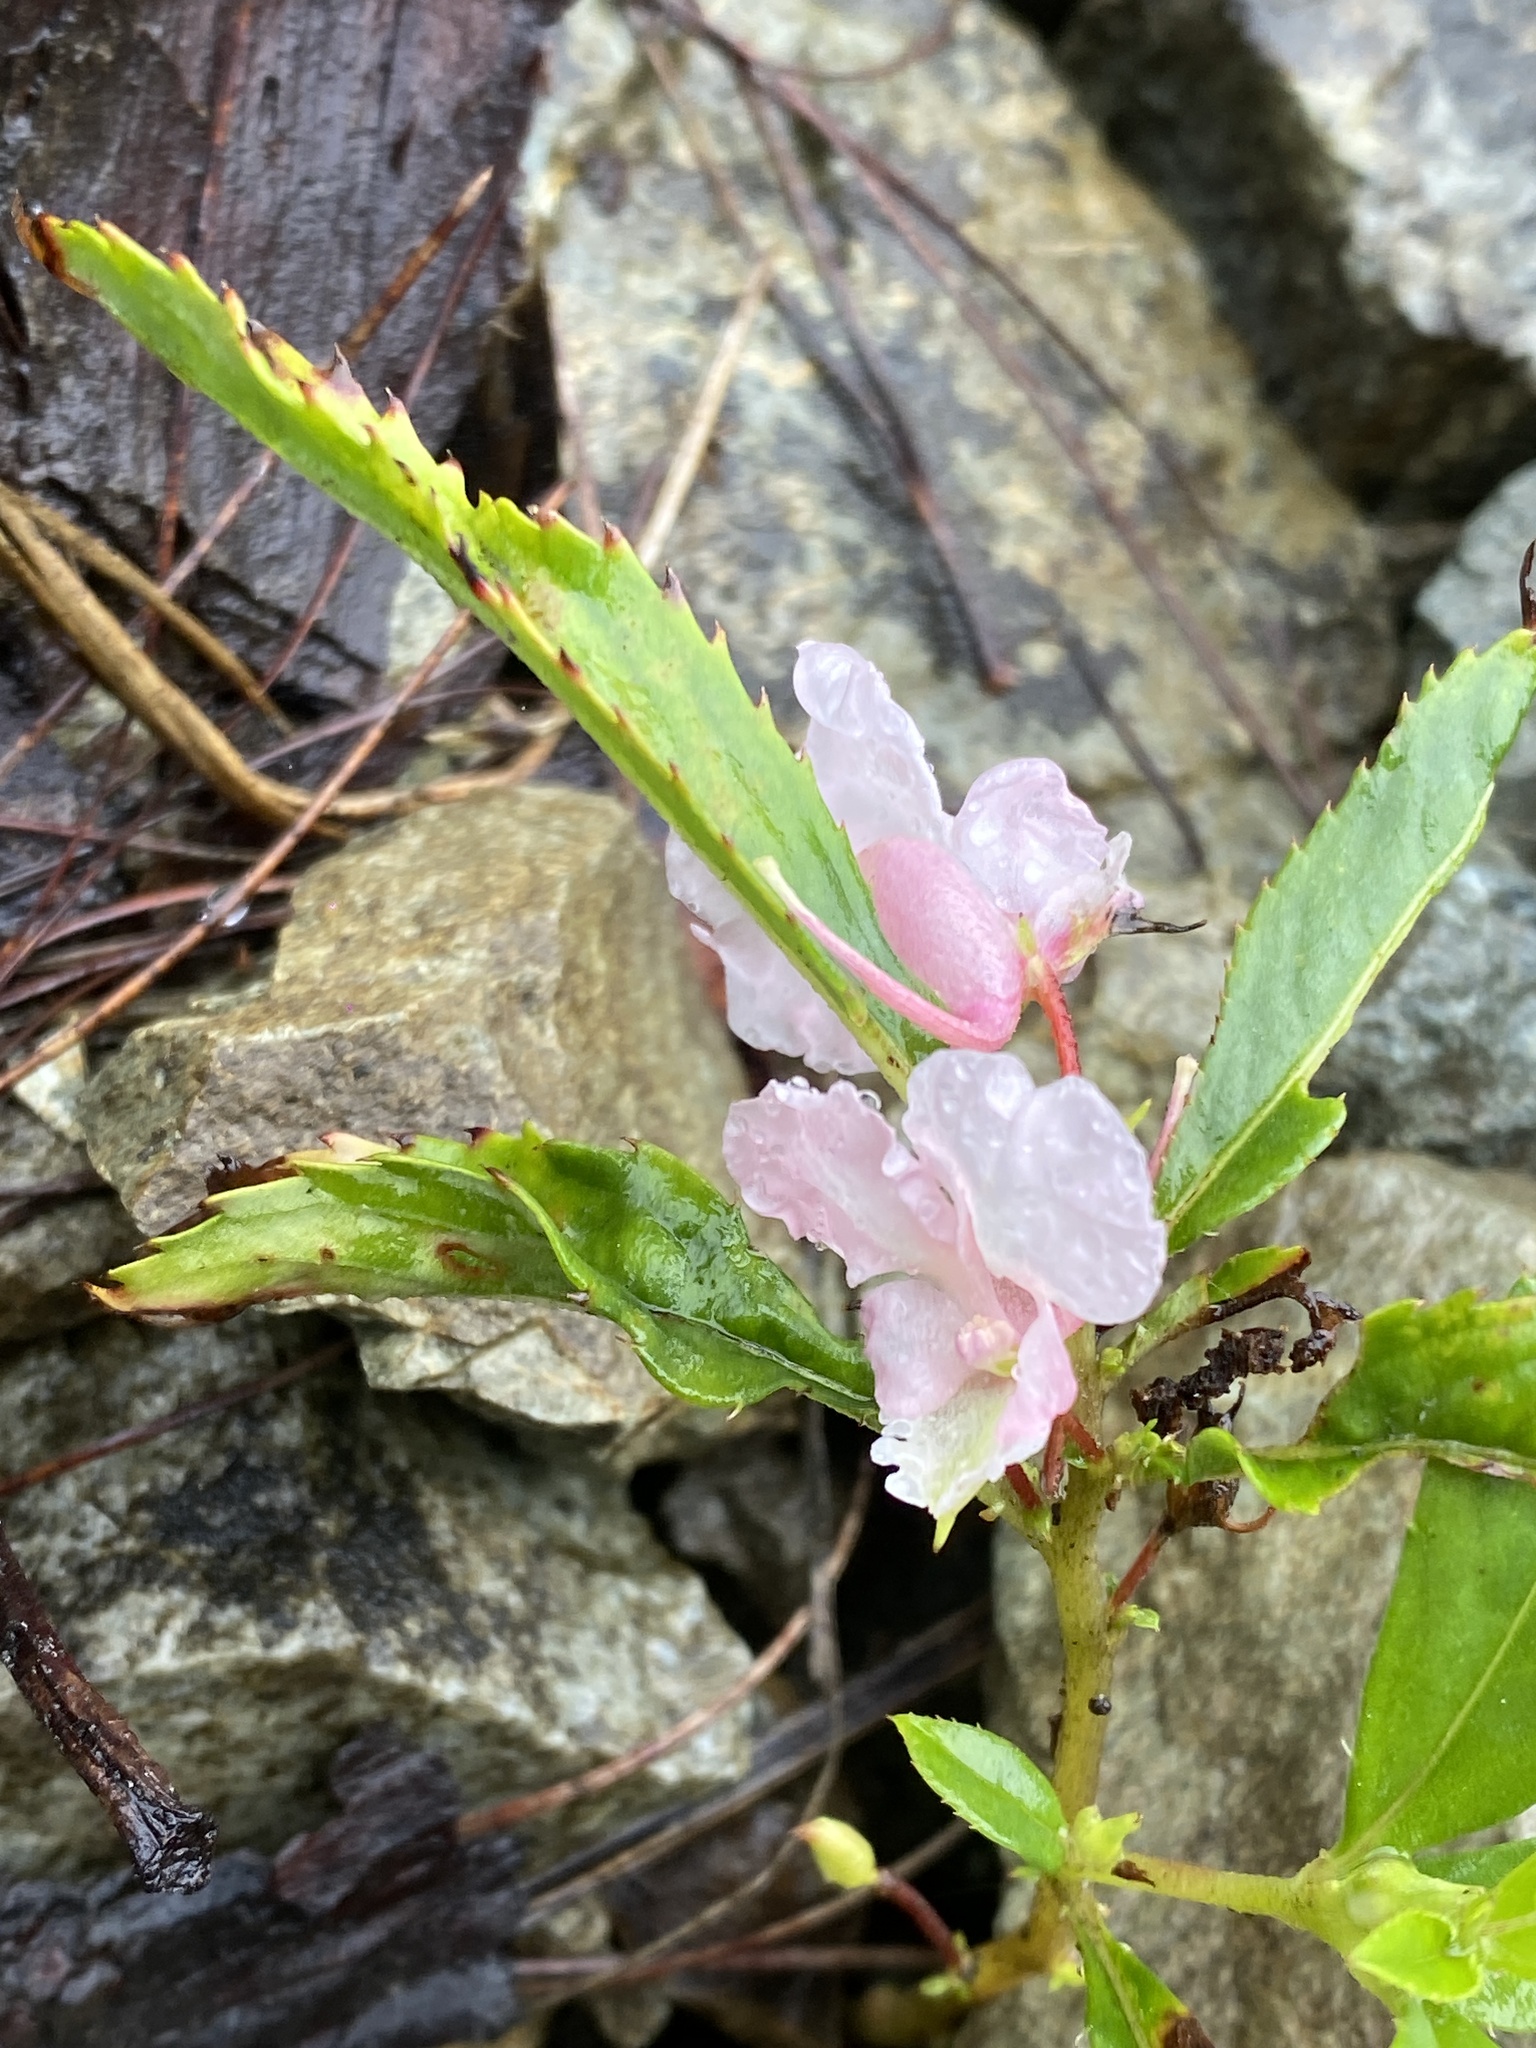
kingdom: Plantae
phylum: Tracheophyta
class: Magnoliopsida
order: Ericales
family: Balsaminaceae
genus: Impatiens
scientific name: Impatiens balsamina
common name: Balsam
